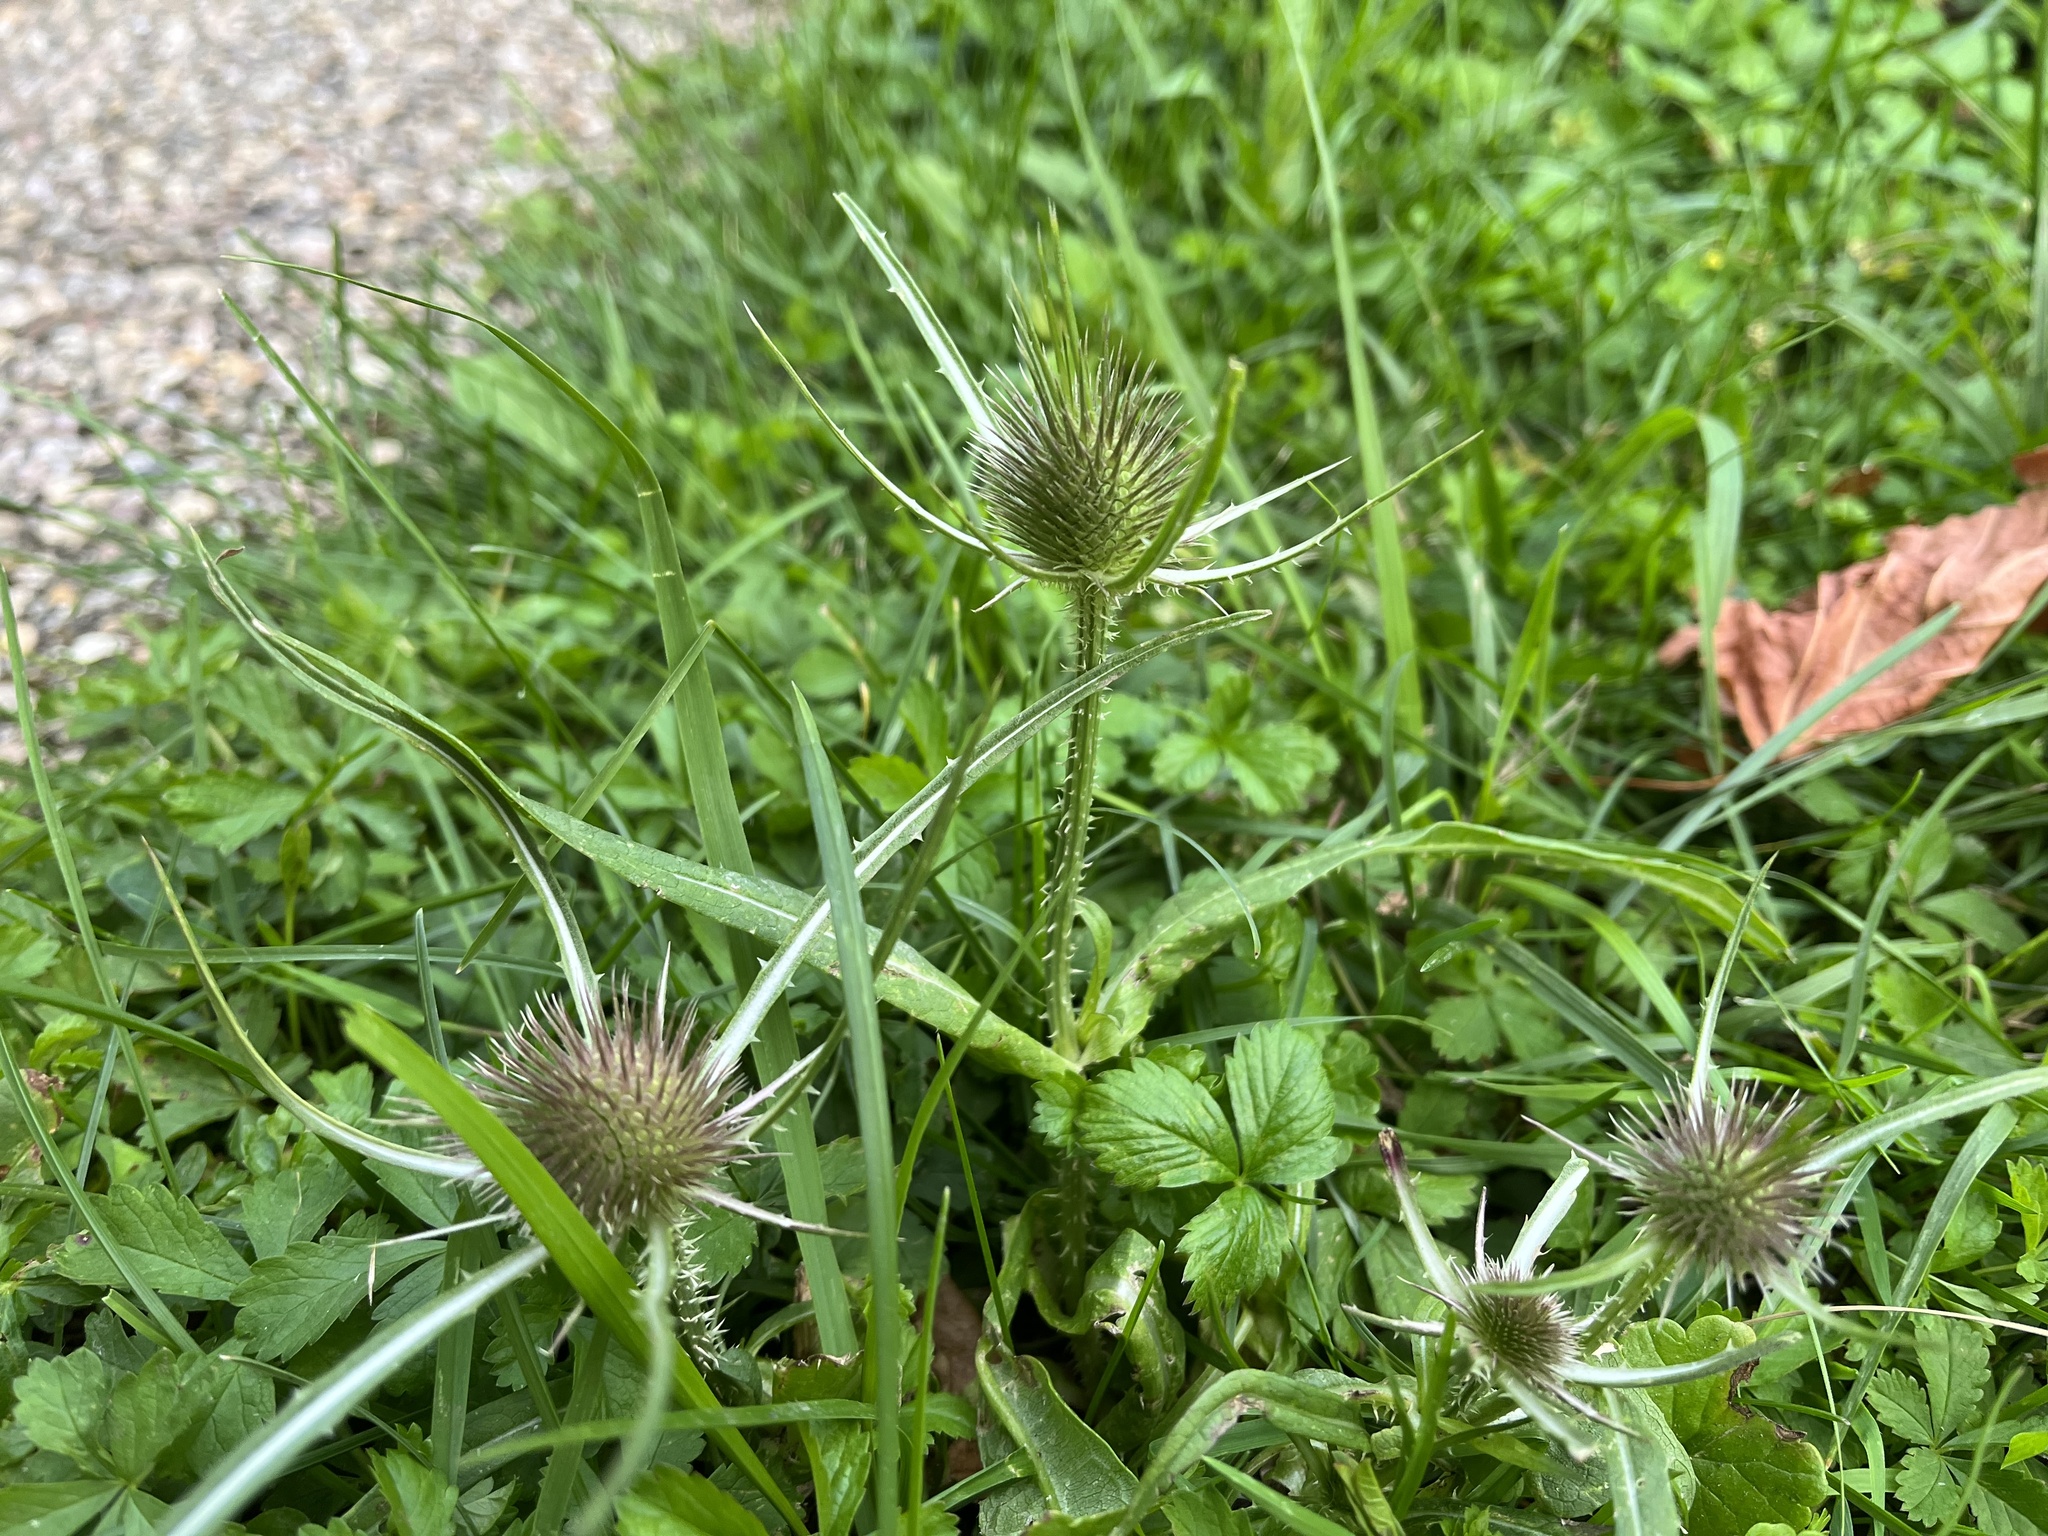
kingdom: Plantae
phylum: Tracheophyta
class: Magnoliopsida
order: Dipsacales
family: Caprifoliaceae
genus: Dipsacus
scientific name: Dipsacus fullonum
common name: Teasel
